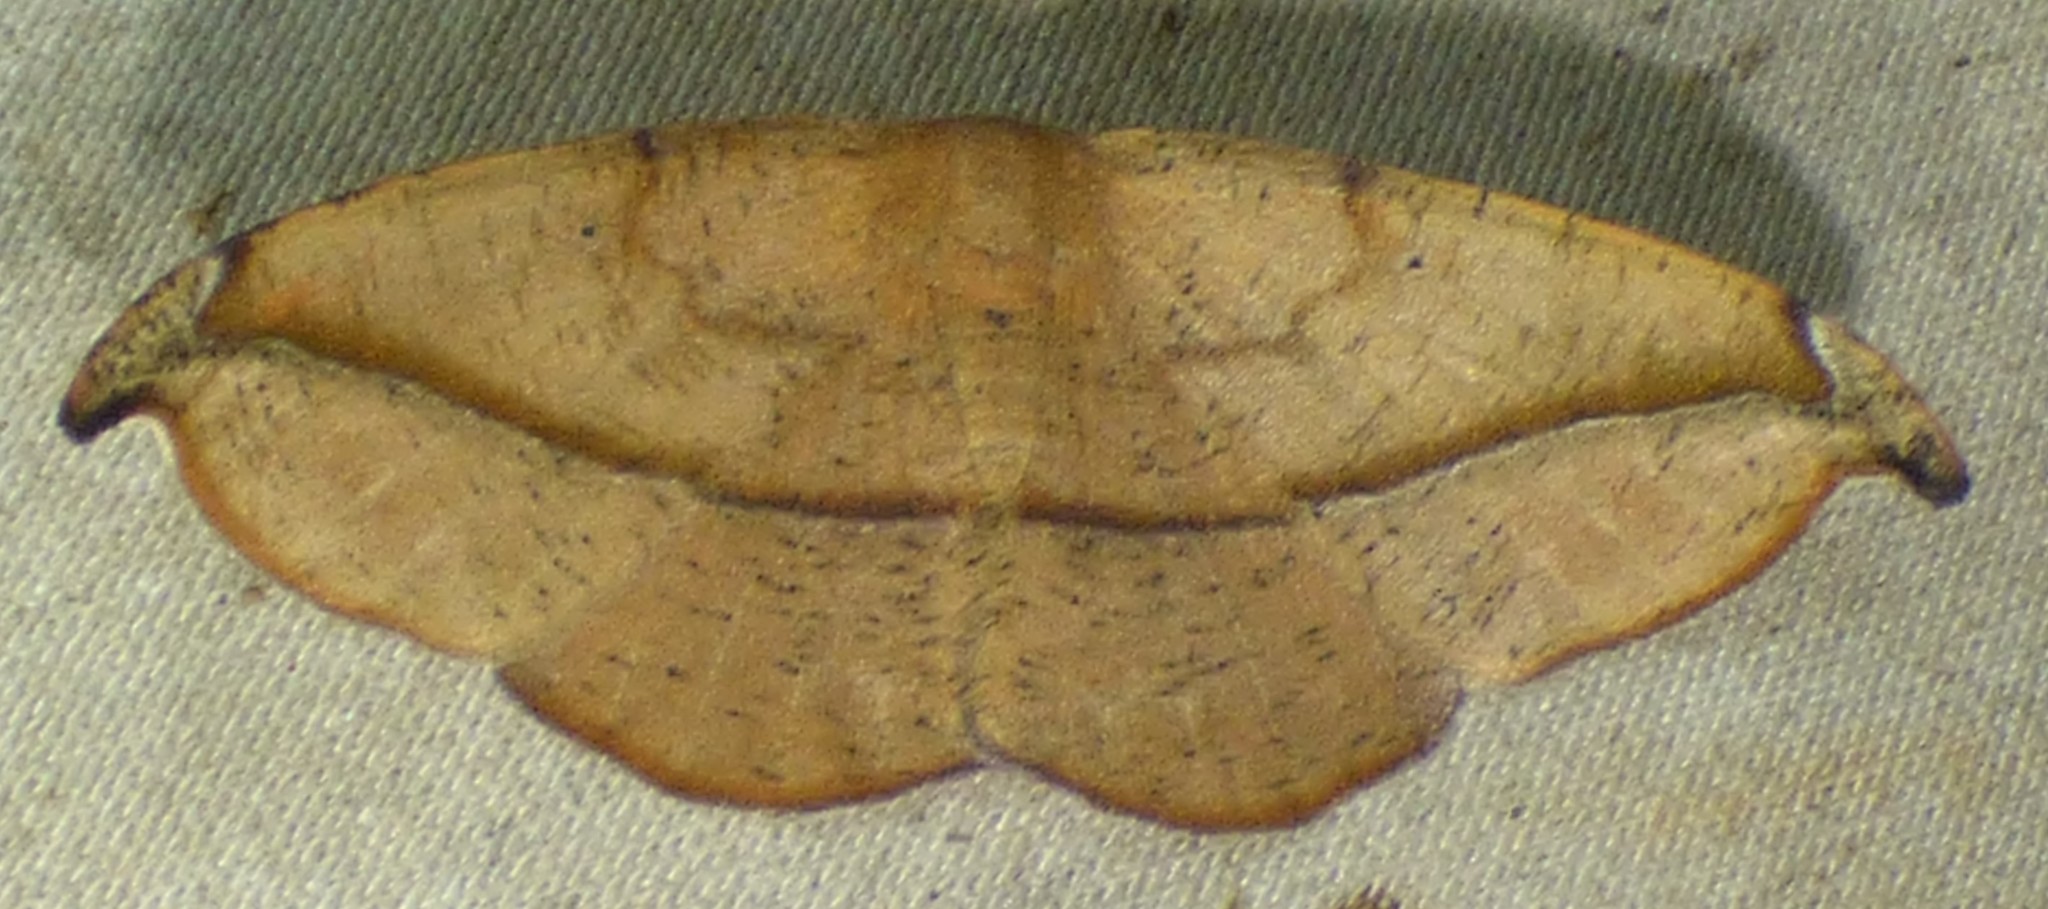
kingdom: Animalia
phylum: Arthropoda
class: Insecta
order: Lepidoptera
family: Geometridae
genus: Patalene
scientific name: Patalene olyzonaria
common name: Juniper geometer moth
